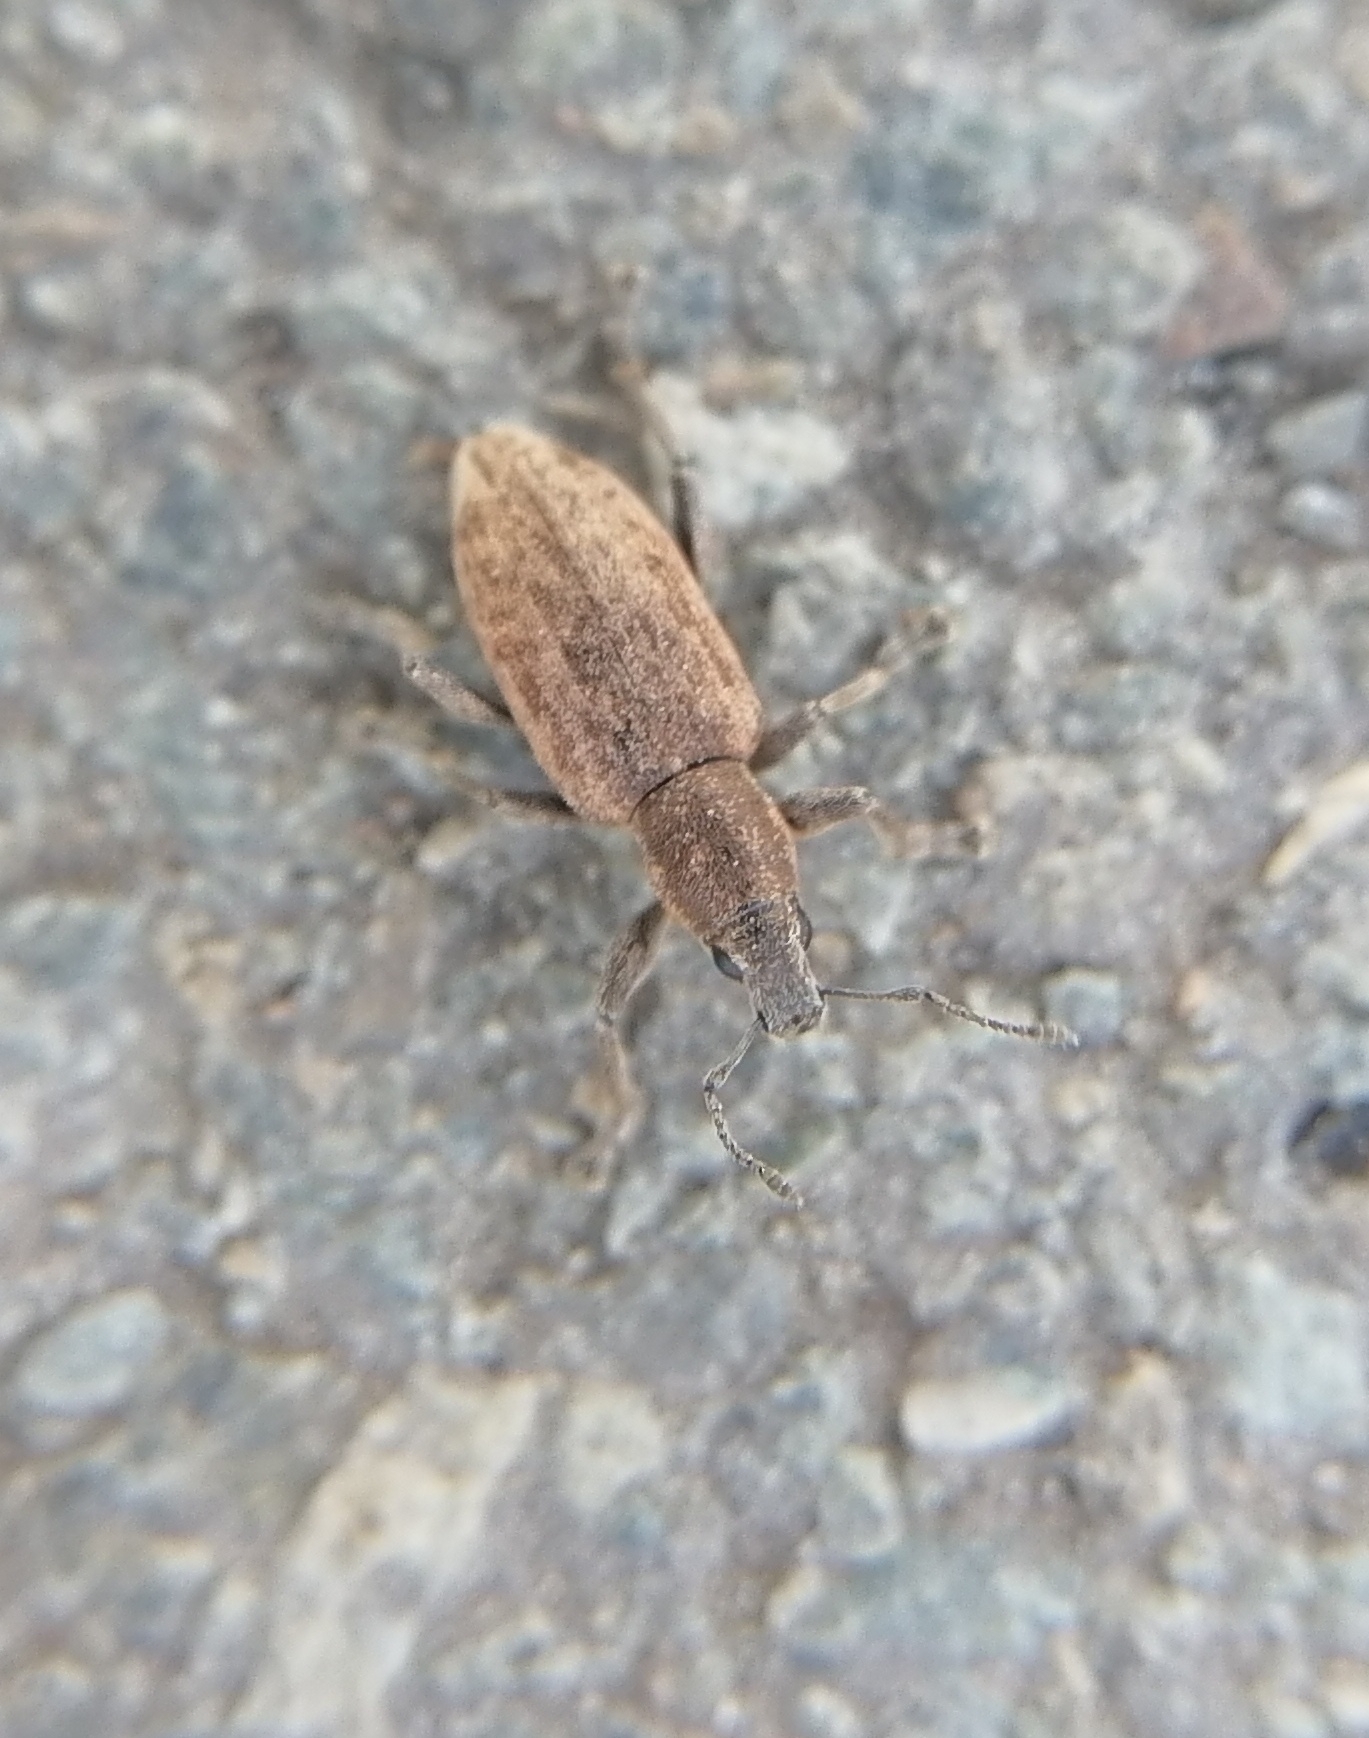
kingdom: Animalia
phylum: Arthropoda
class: Insecta
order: Coleoptera
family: Curculionidae
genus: Tanymecus
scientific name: Tanymecus palliatus
